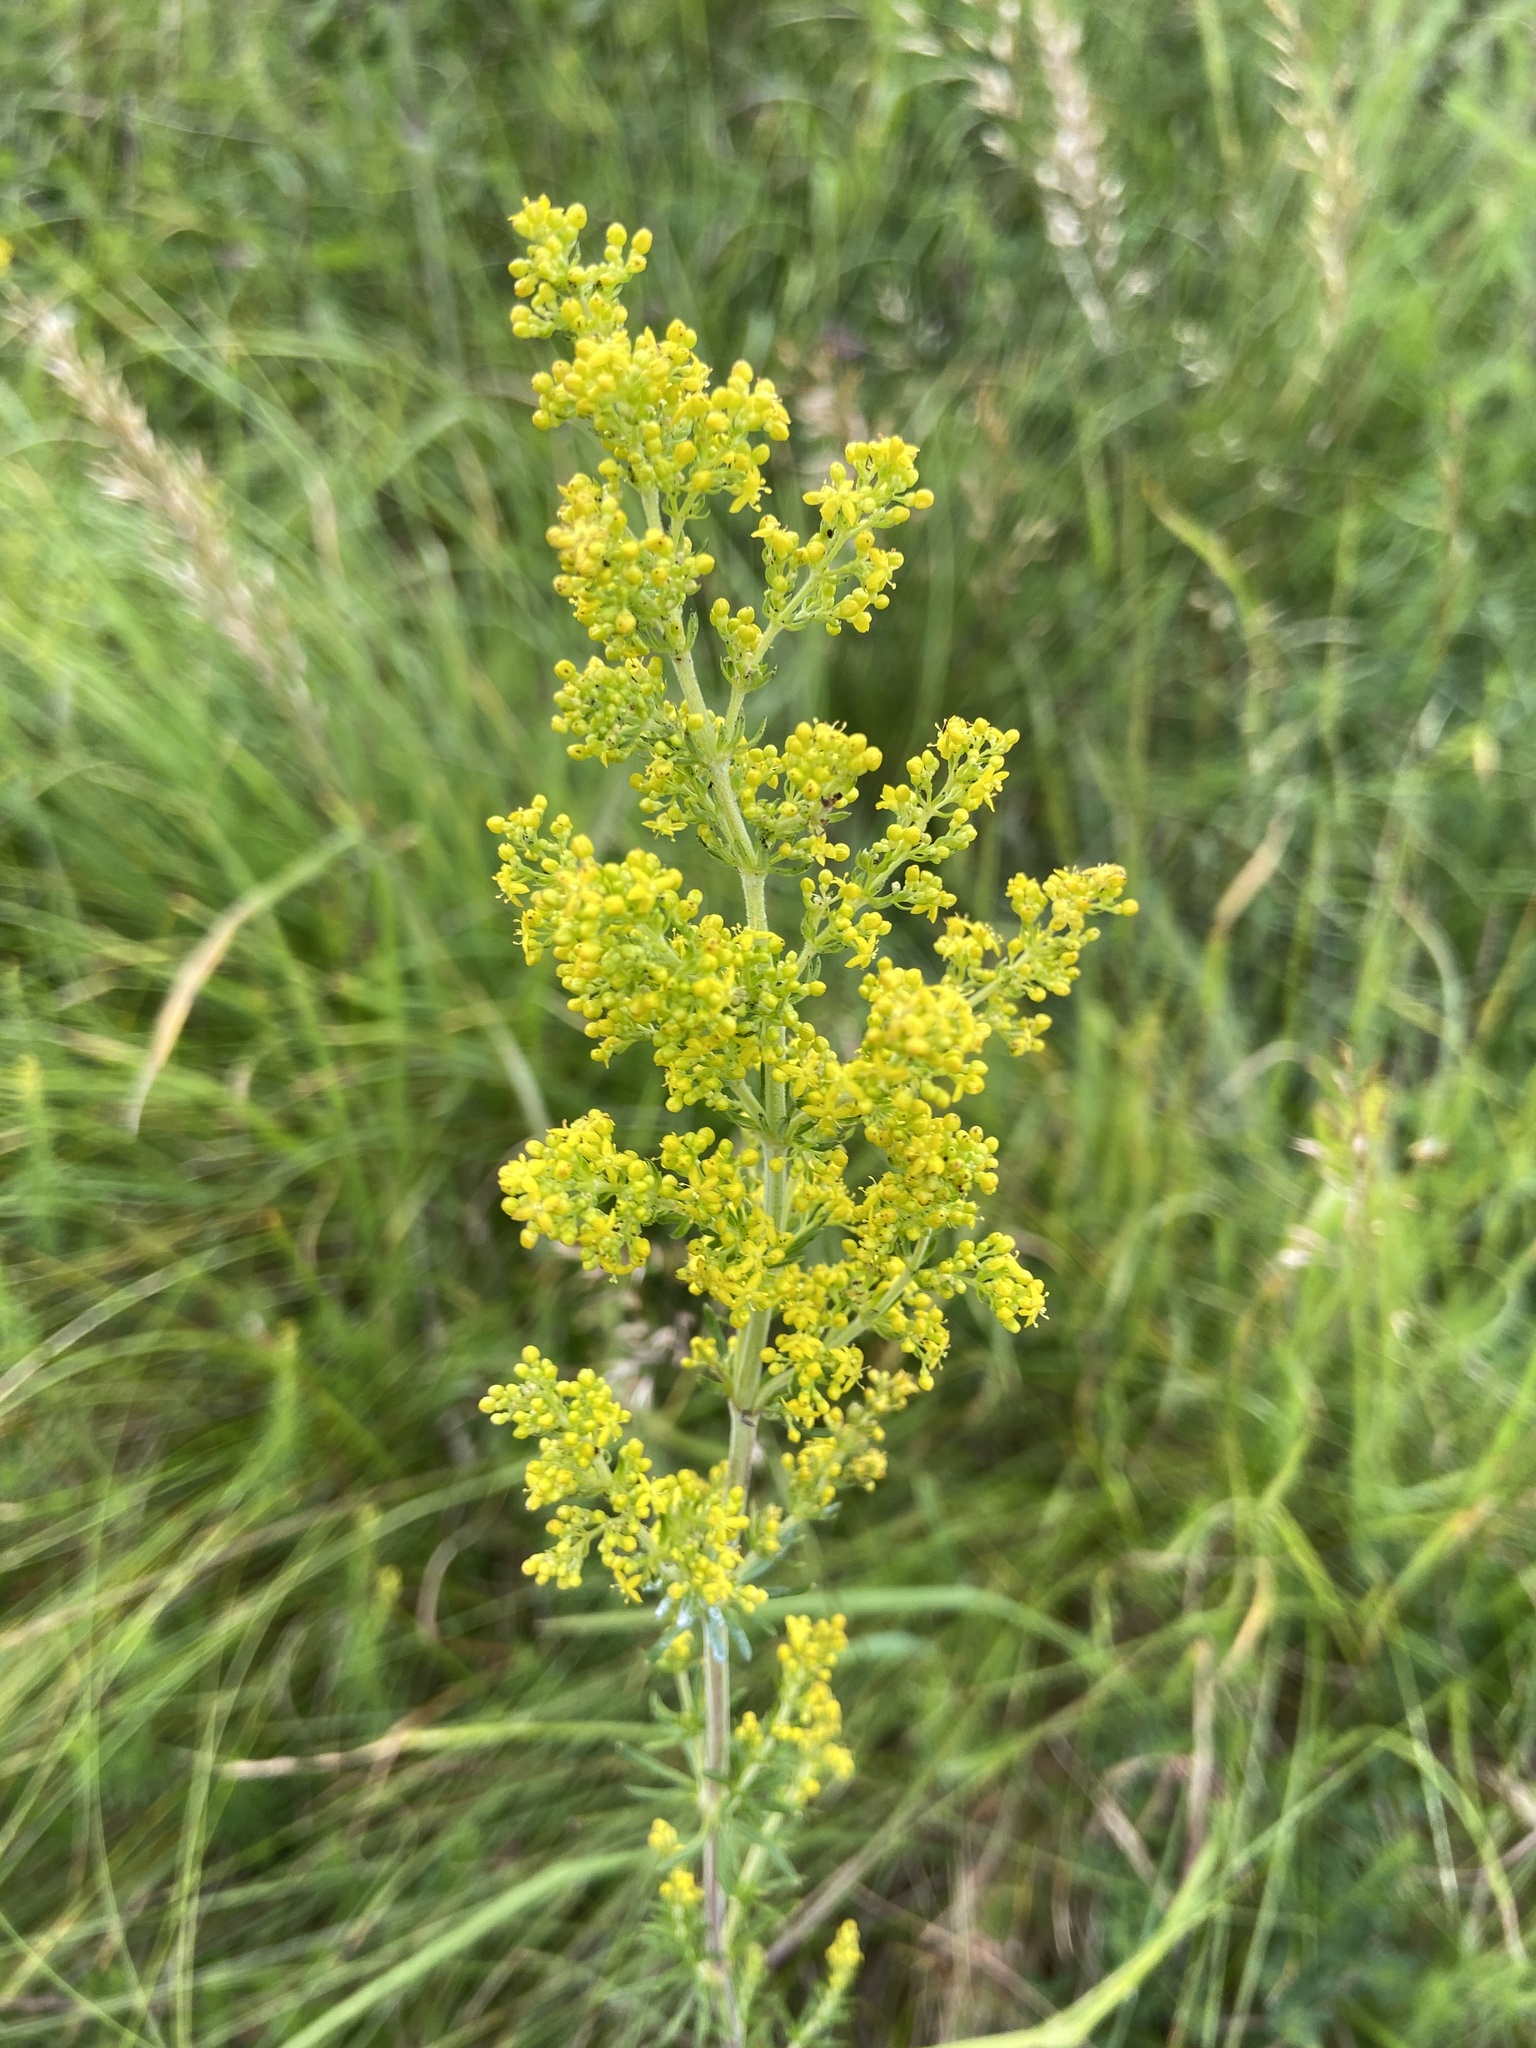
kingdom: Plantae
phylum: Tracheophyta
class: Magnoliopsida
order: Gentianales
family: Rubiaceae
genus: Galium
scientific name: Galium verum
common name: Lady's bedstraw
